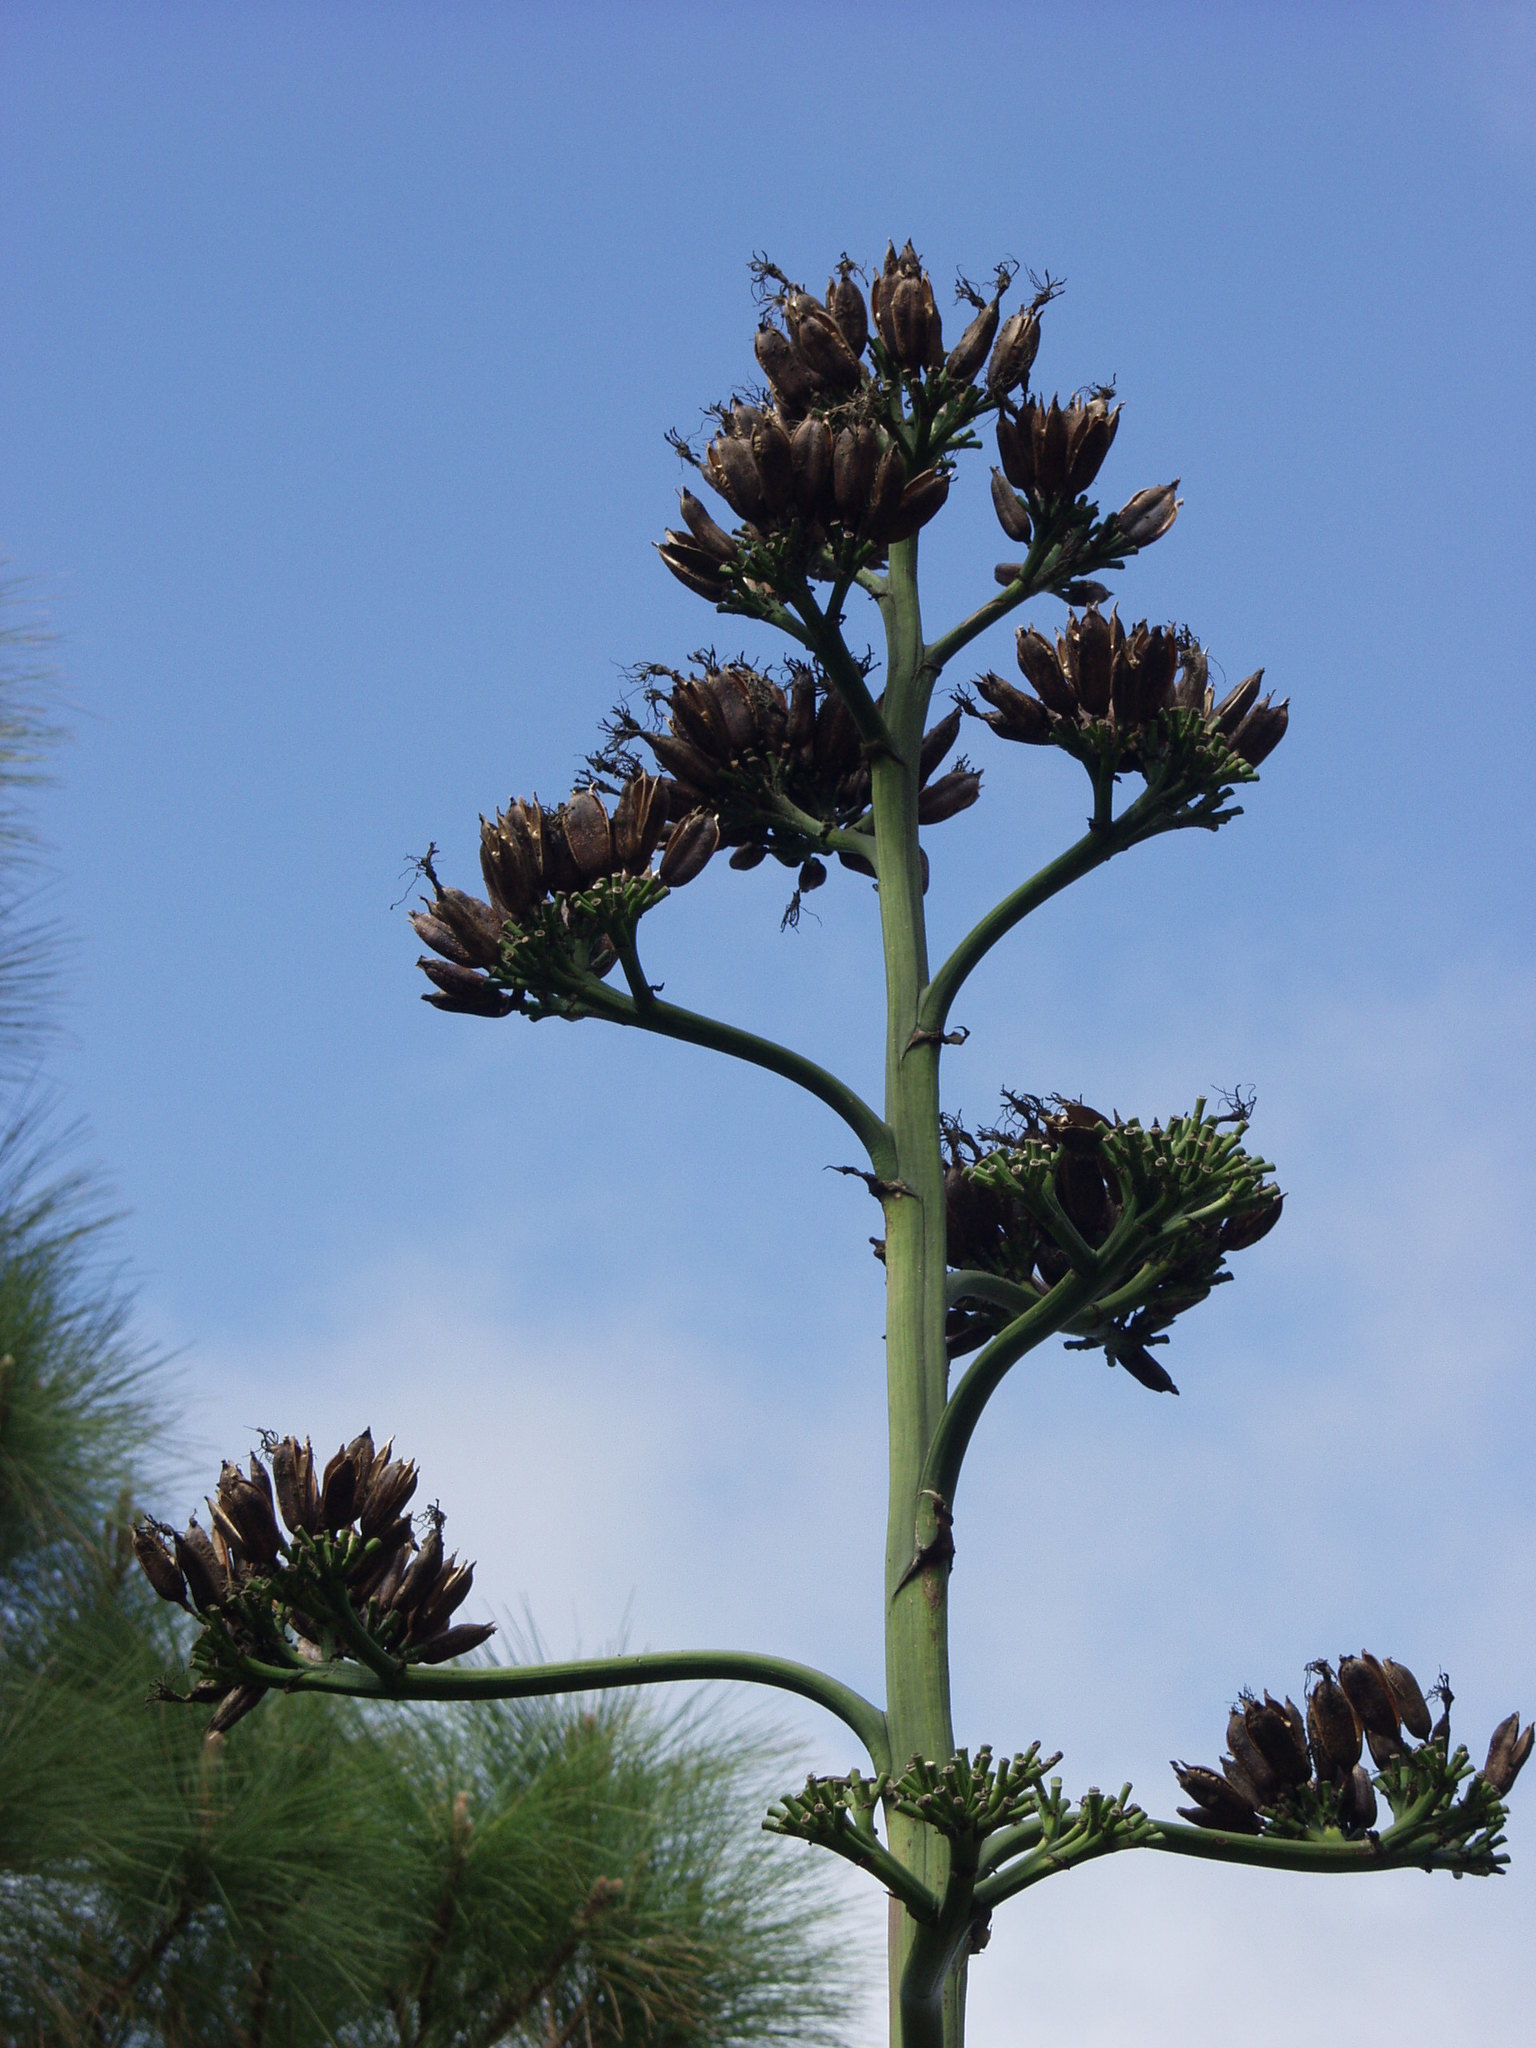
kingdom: Plantae
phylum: Tracheophyta
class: Liliopsida
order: Asparagales
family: Asparagaceae
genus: Agave
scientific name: Agave americana
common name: Centuryplant
